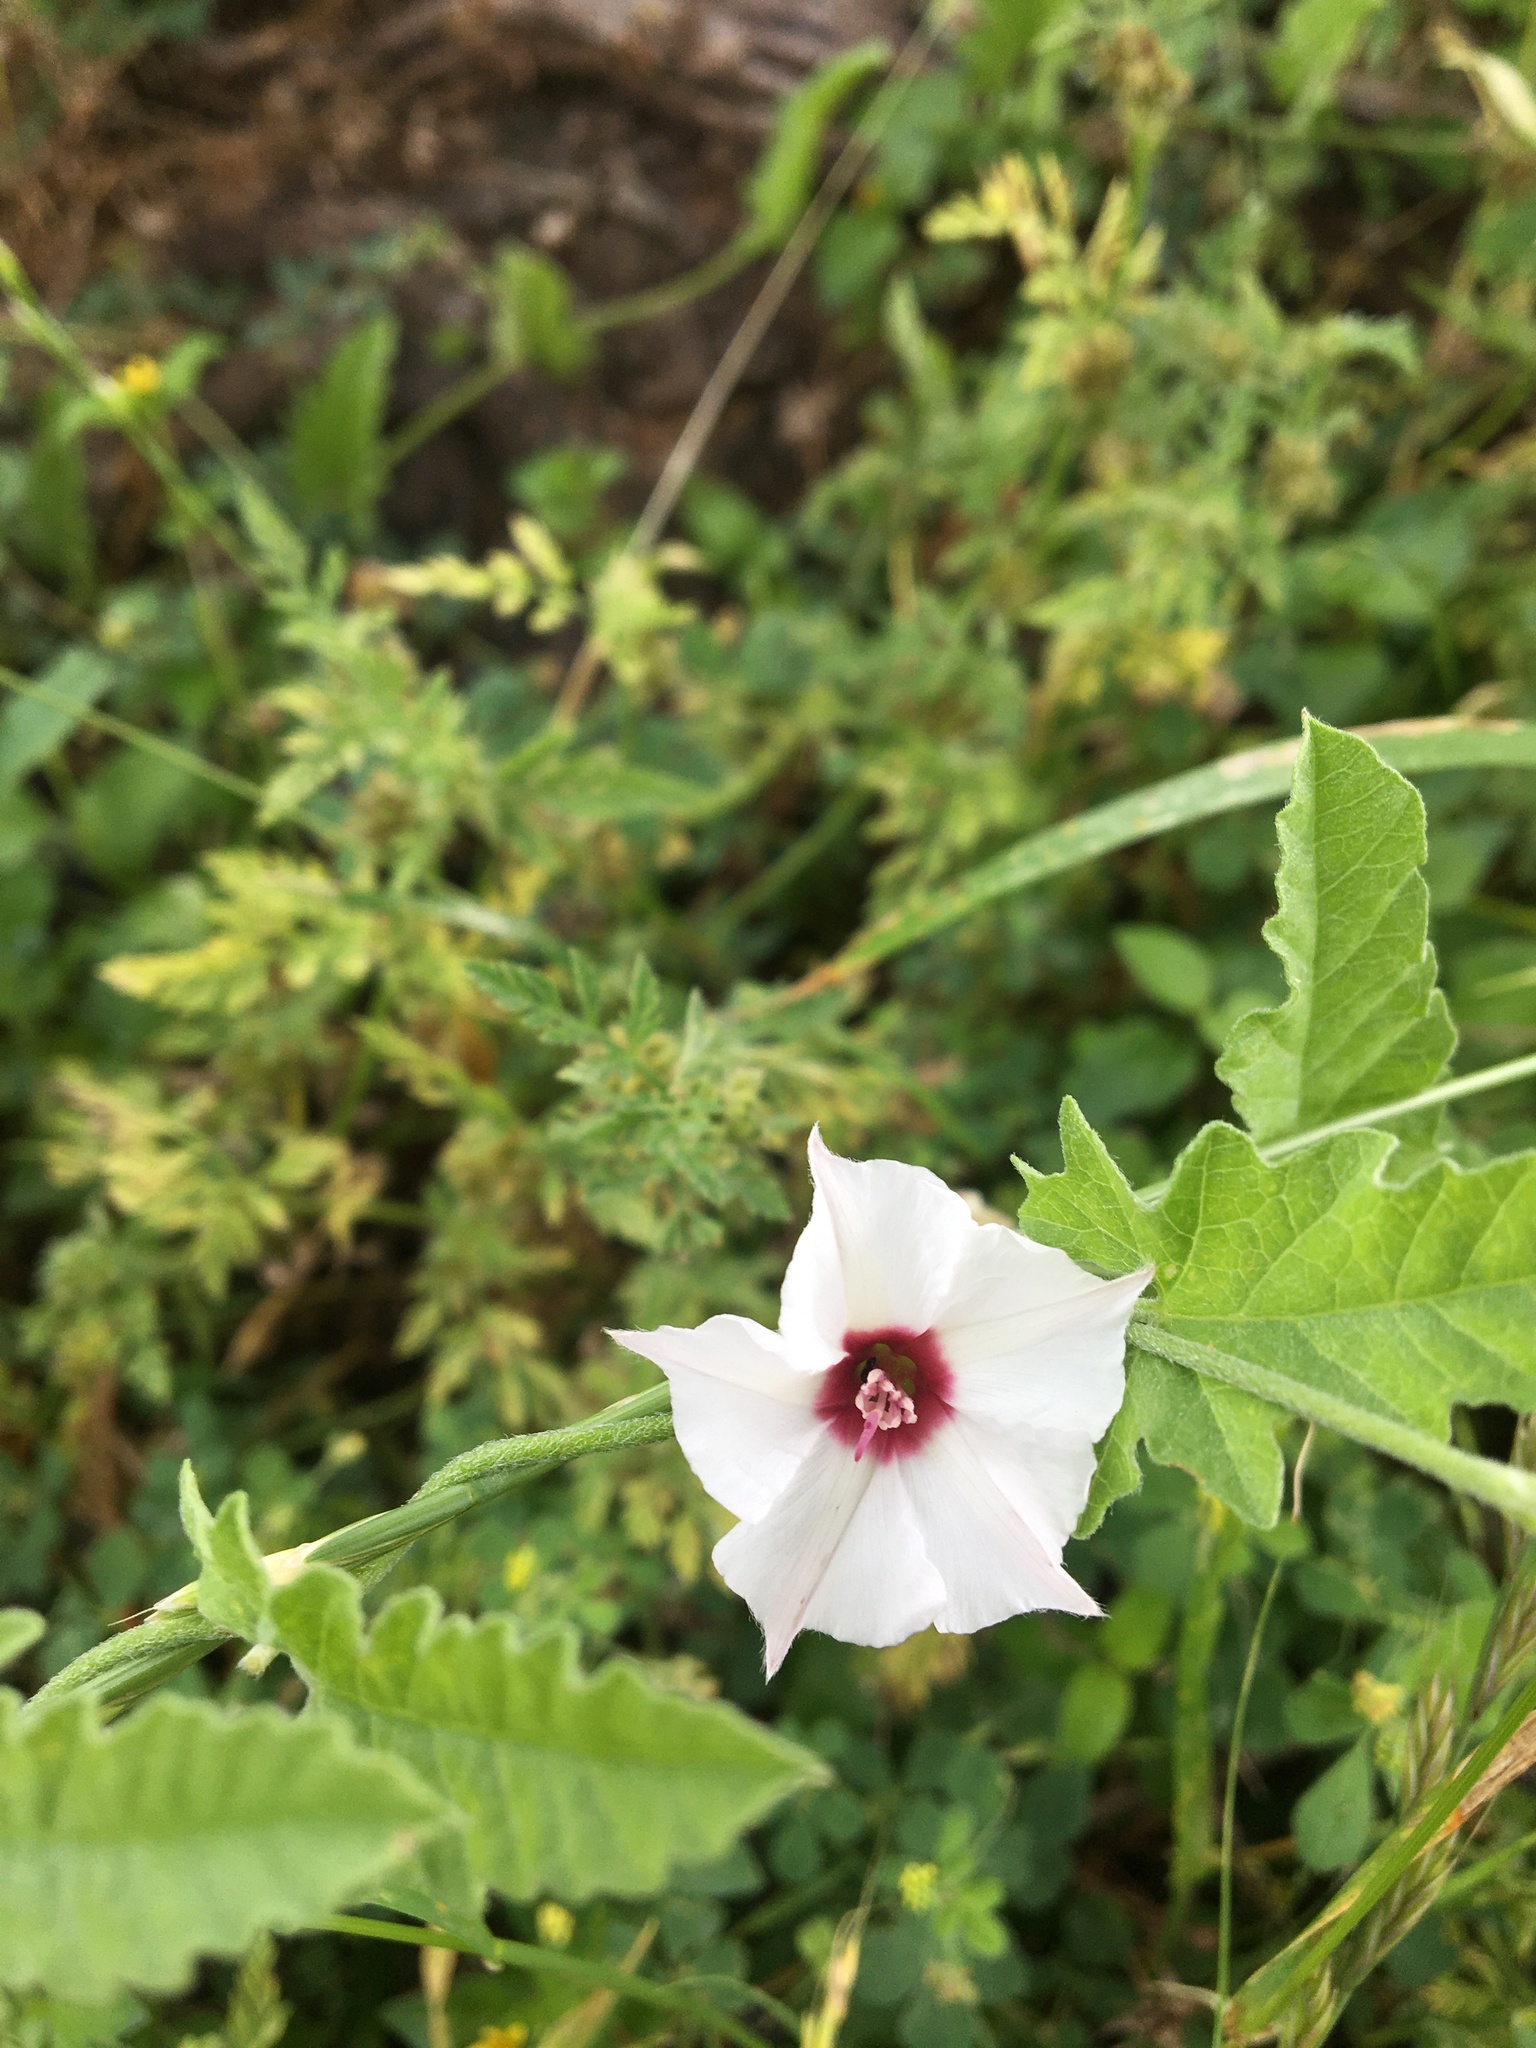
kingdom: Plantae
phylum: Tracheophyta
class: Magnoliopsida
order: Solanales
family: Convolvulaceae
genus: Convolvulus
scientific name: Convolvulus equitans
